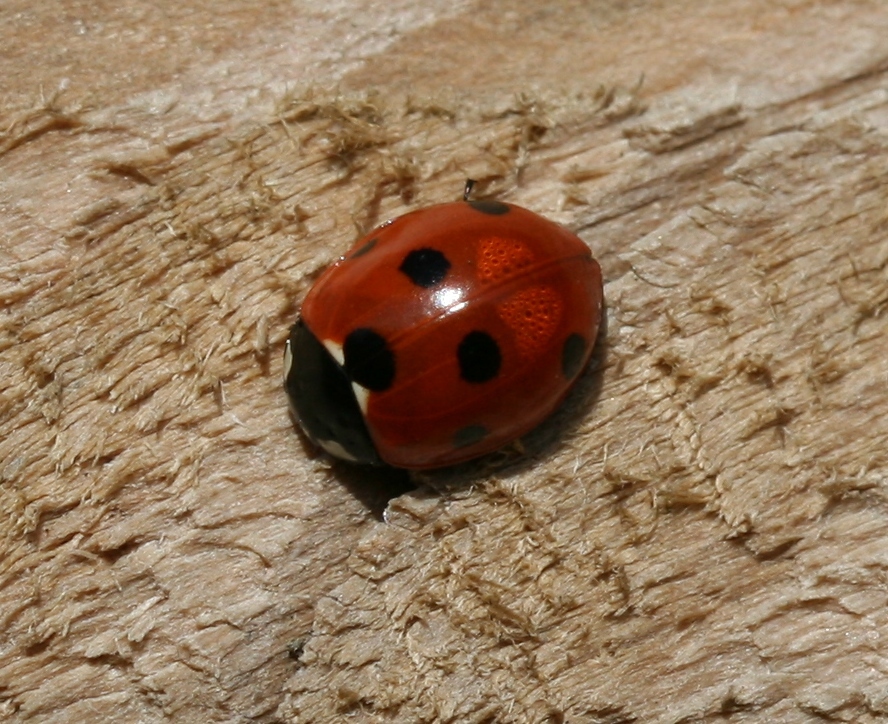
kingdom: Animalia
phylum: Arthropoda
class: Insecta
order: Coleoptera
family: Coccinellidae
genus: Coccinella
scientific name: Coccinella septempunctata
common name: Sevenspotted lady beetle
